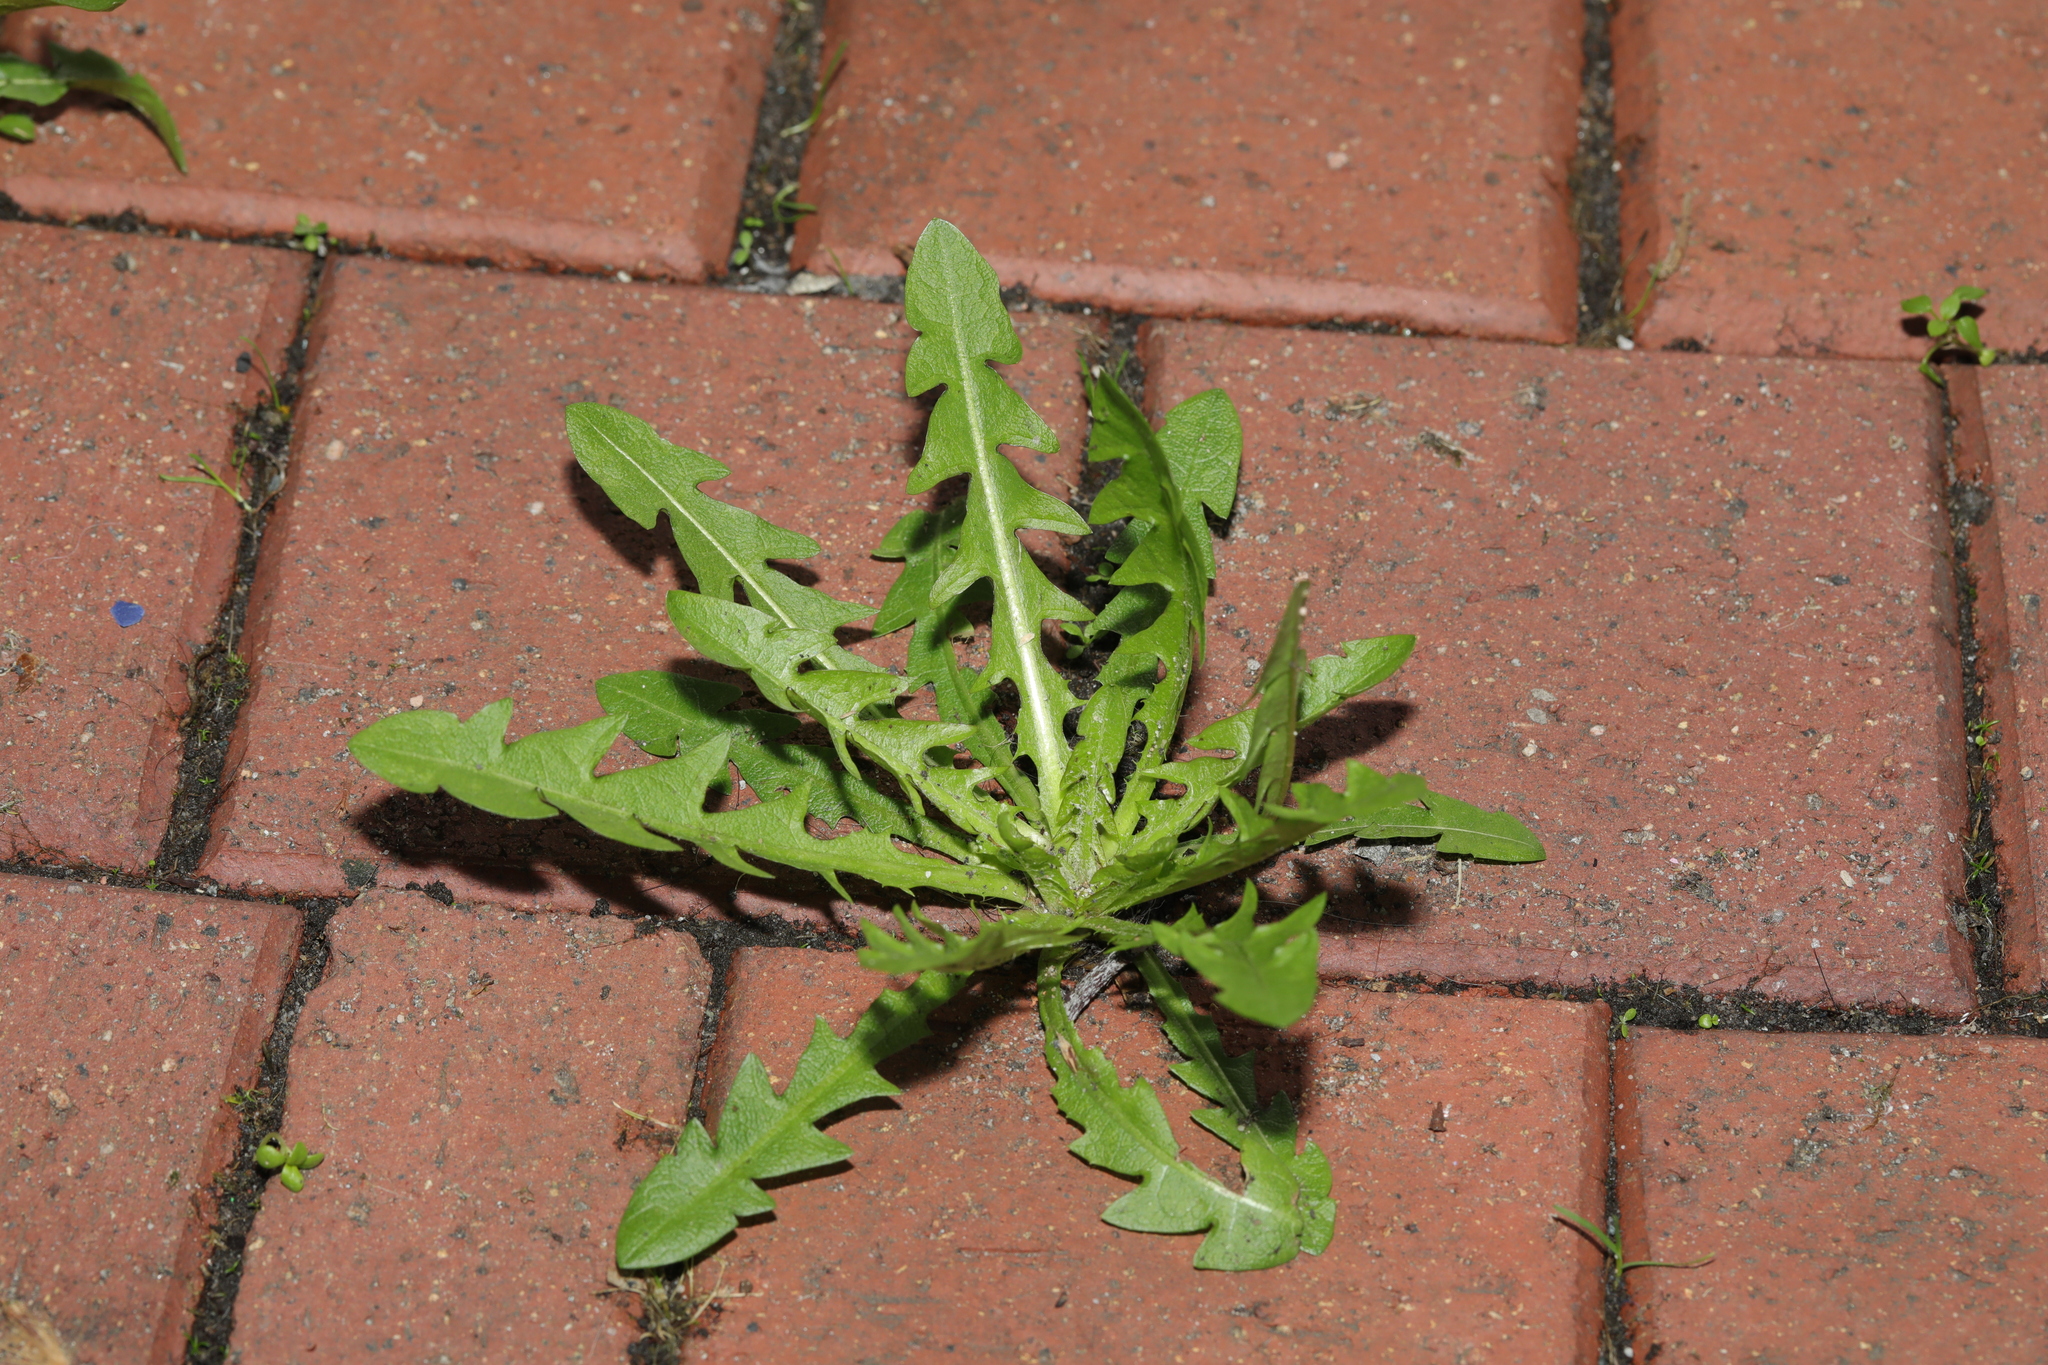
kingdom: Plantae
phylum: Tracheophyta
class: Magnoliopsida
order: Asterales
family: Asteraceae
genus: Taraxacum
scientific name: Taraxacum officinale
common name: Common dandelion
